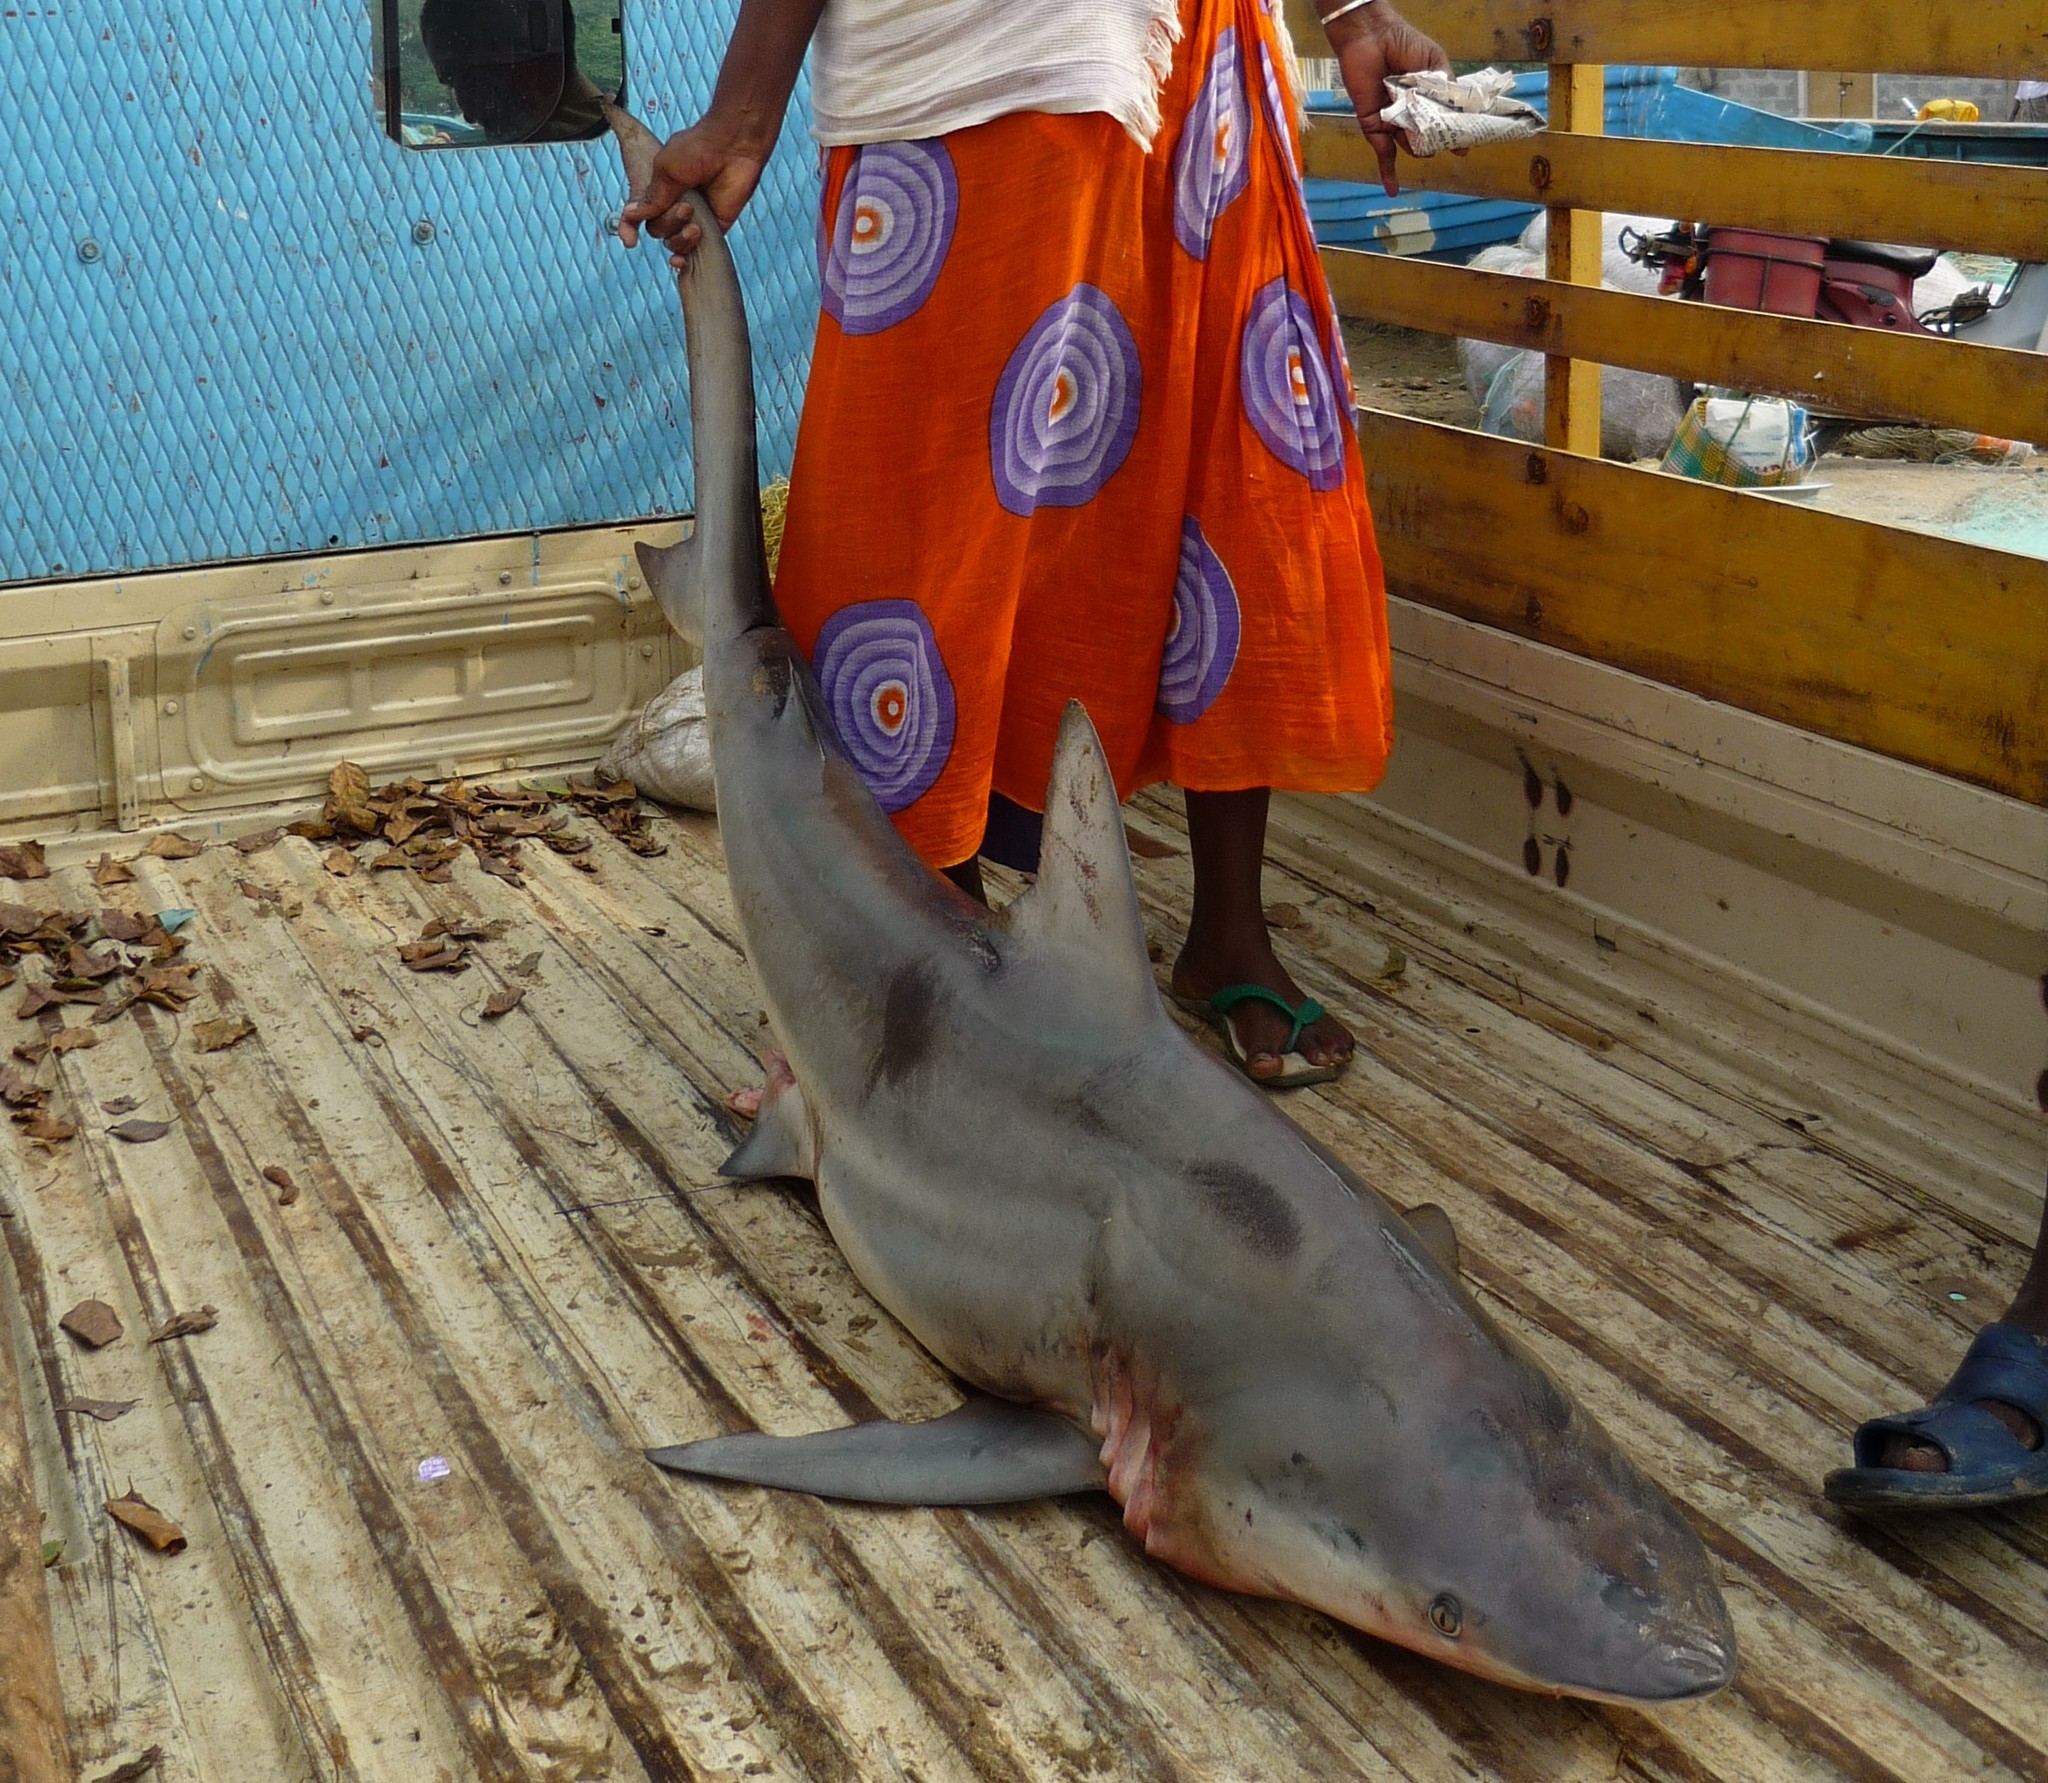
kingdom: Animalia
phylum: Chordata
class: Elasmobranchii
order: Carcharhiniformes
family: Carcharhinidae
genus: Carcharhinus
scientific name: Carcharhinus limbatus
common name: Blacktip shark
